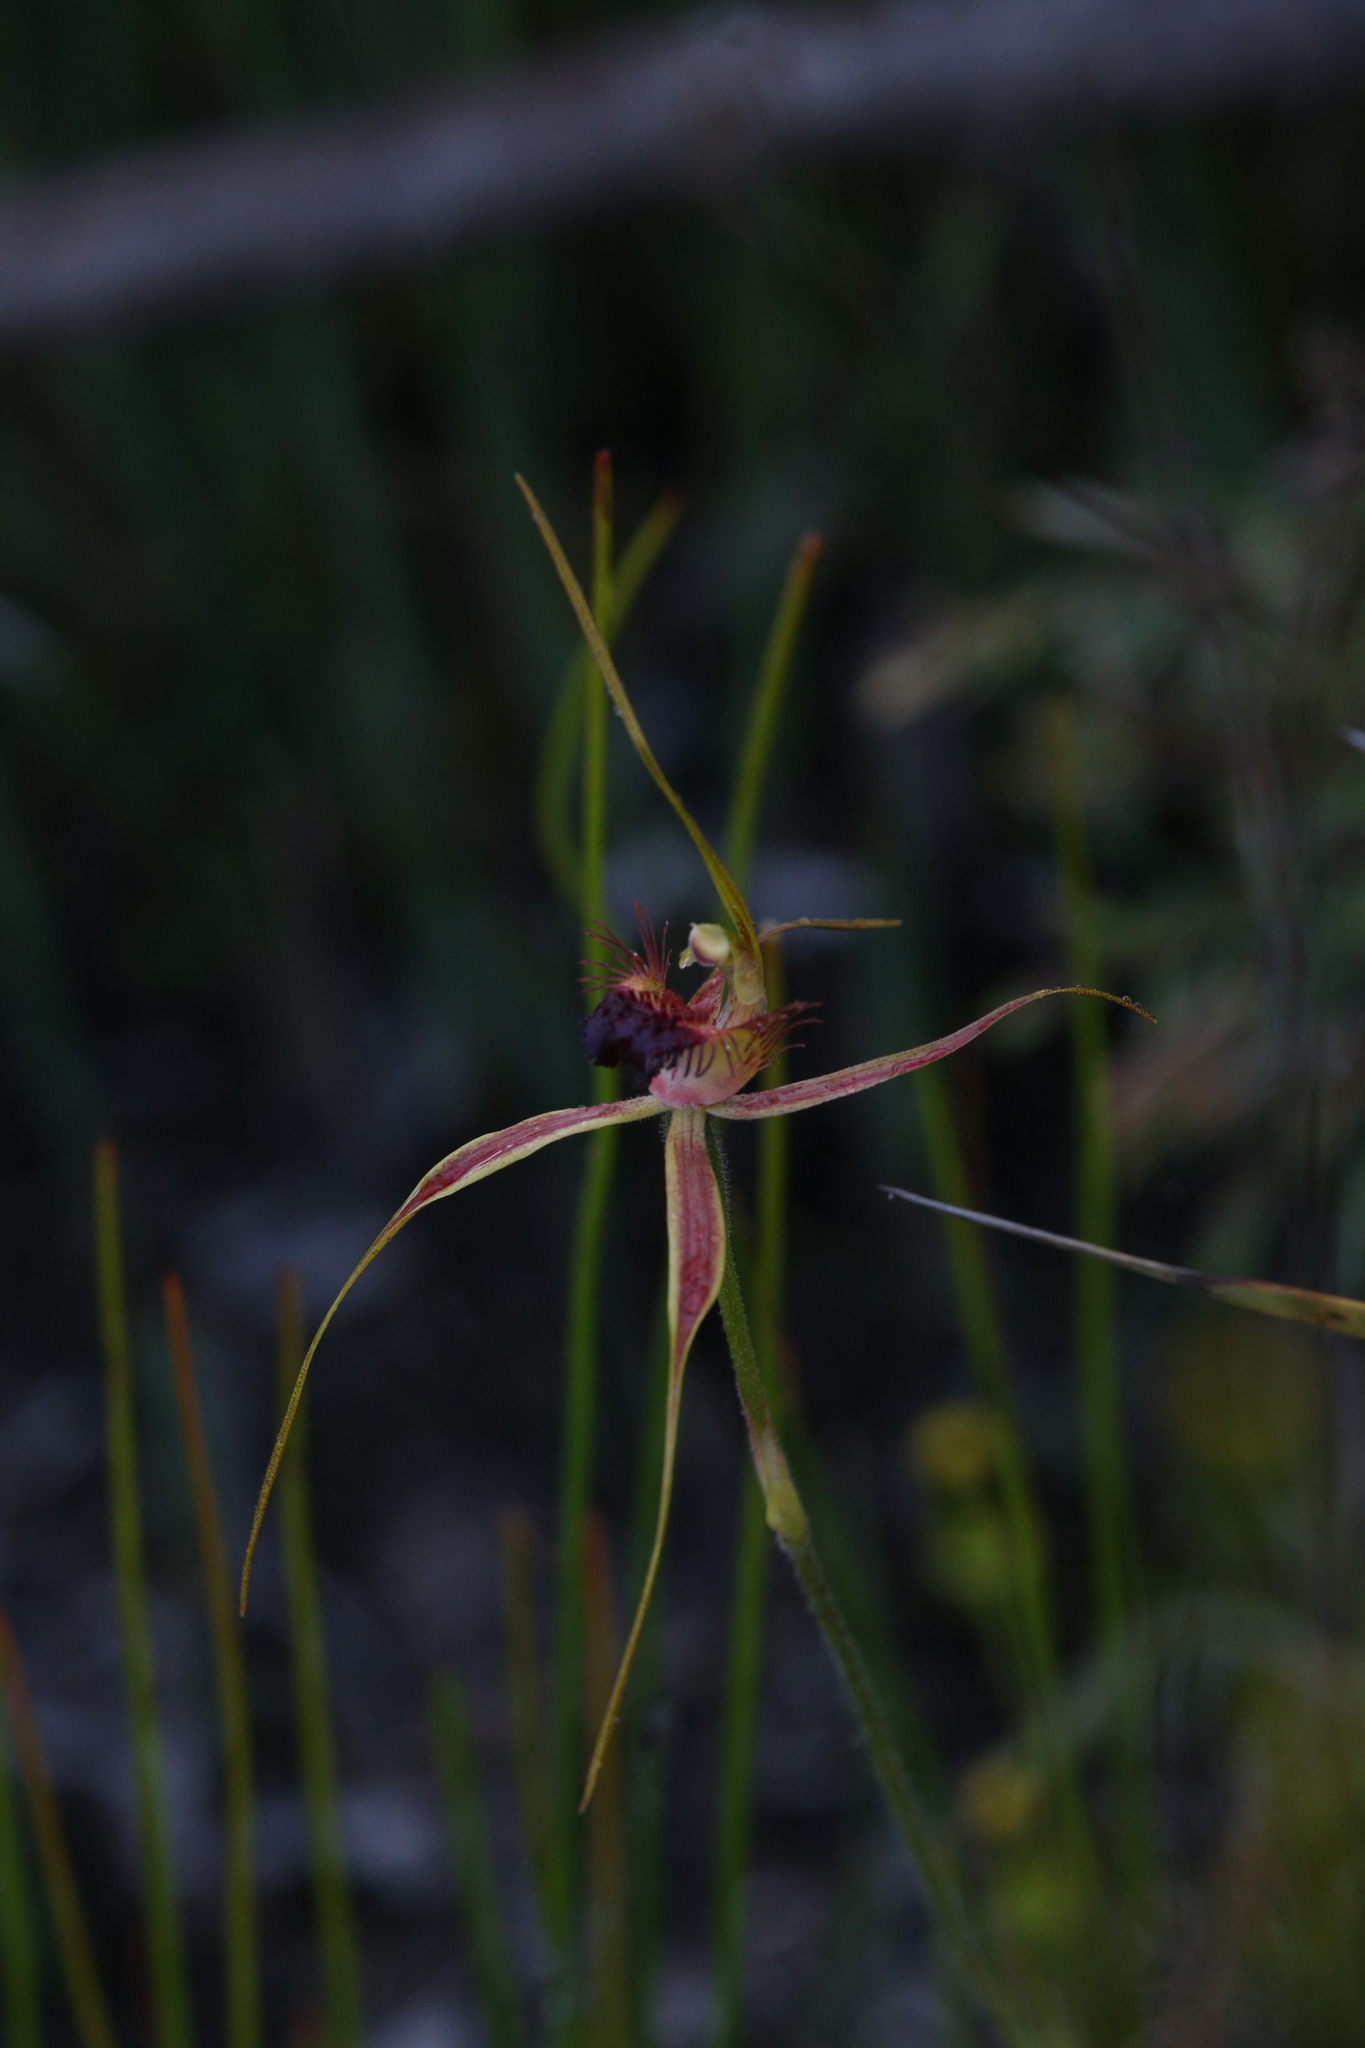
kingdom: Plantae
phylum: Tracheophyta
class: Liliopsida
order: Asparagales
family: Orchidaceae
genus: Caladenia
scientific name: Caladenia brownii
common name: Kari spider orchid
